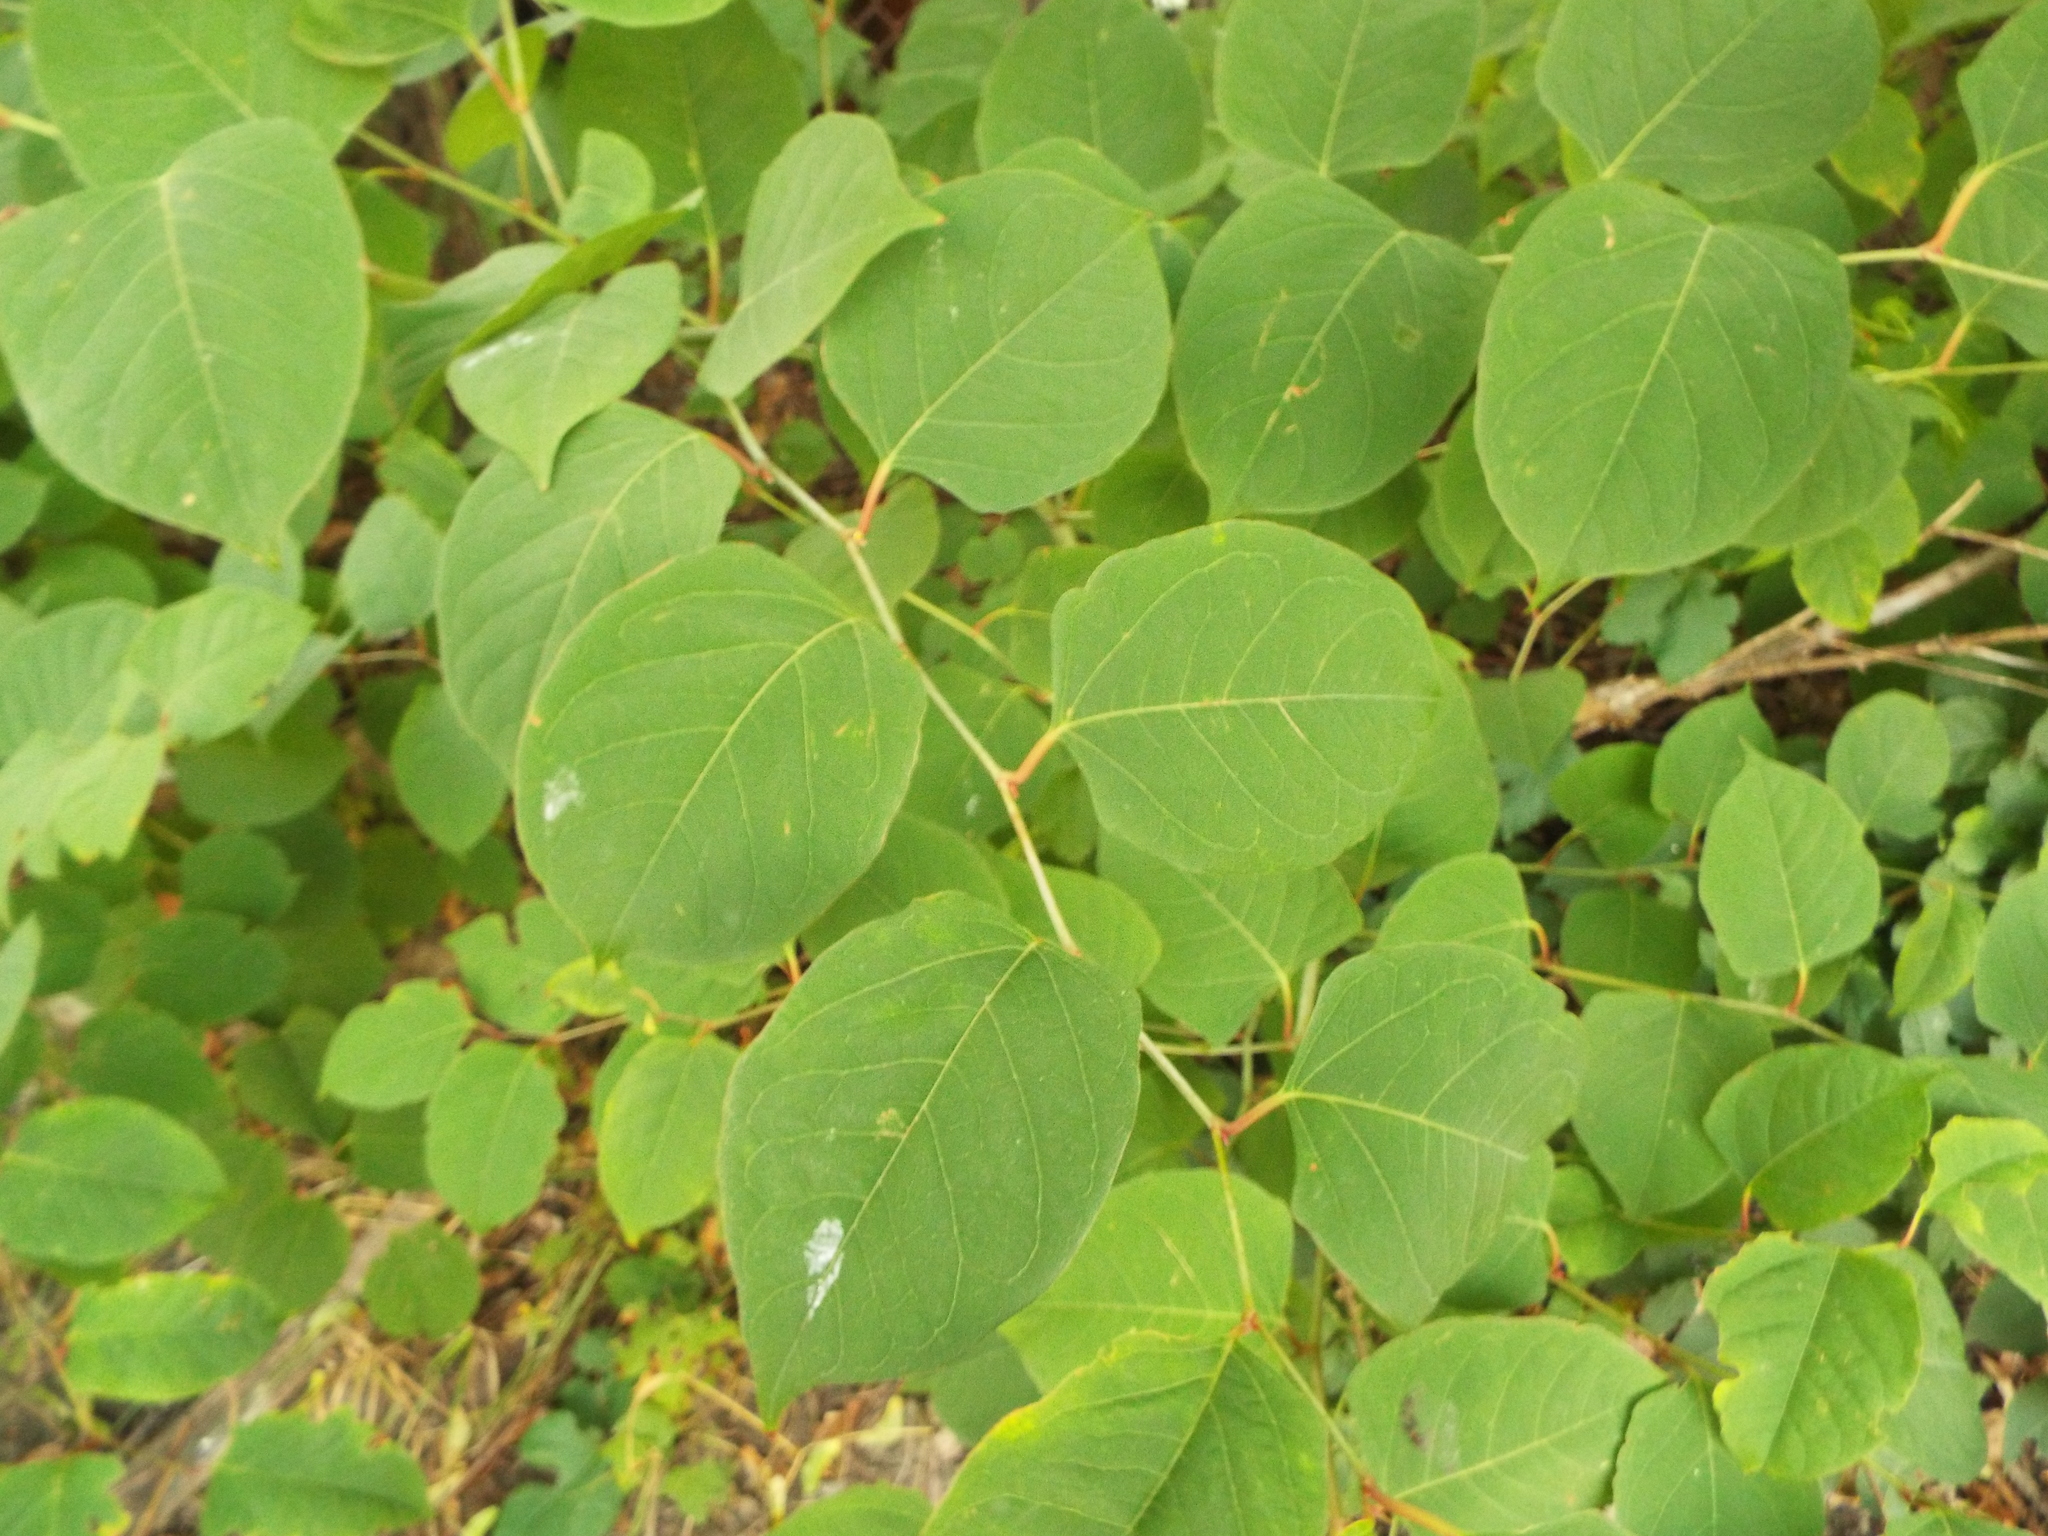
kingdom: Plantae
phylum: Tracheophyta
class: Magnoliopsida
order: Caryophyllales
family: Polygonaceae
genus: Reynoutria
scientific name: Reynoutria japonica
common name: Japanese knotweed
